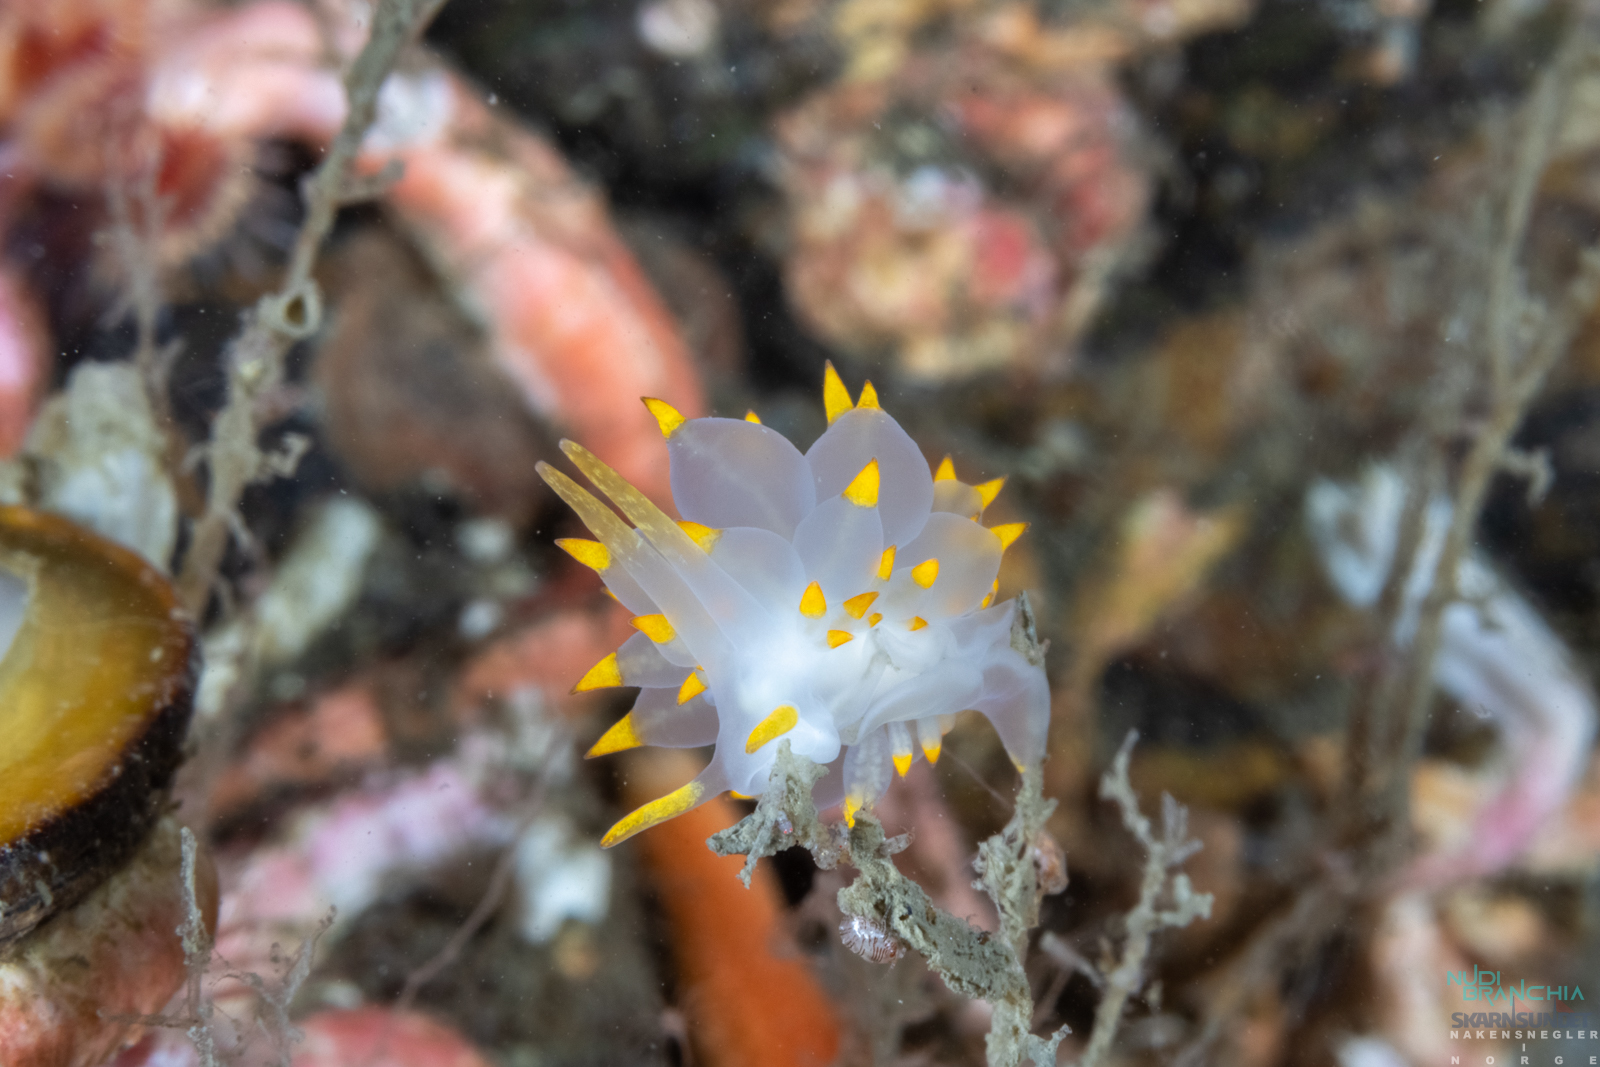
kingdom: Animalia
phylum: Mollusca
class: Gastropoda
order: Nudibranchia
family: Eubranchidae
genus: Amphorina
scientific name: Amphorina farrani
